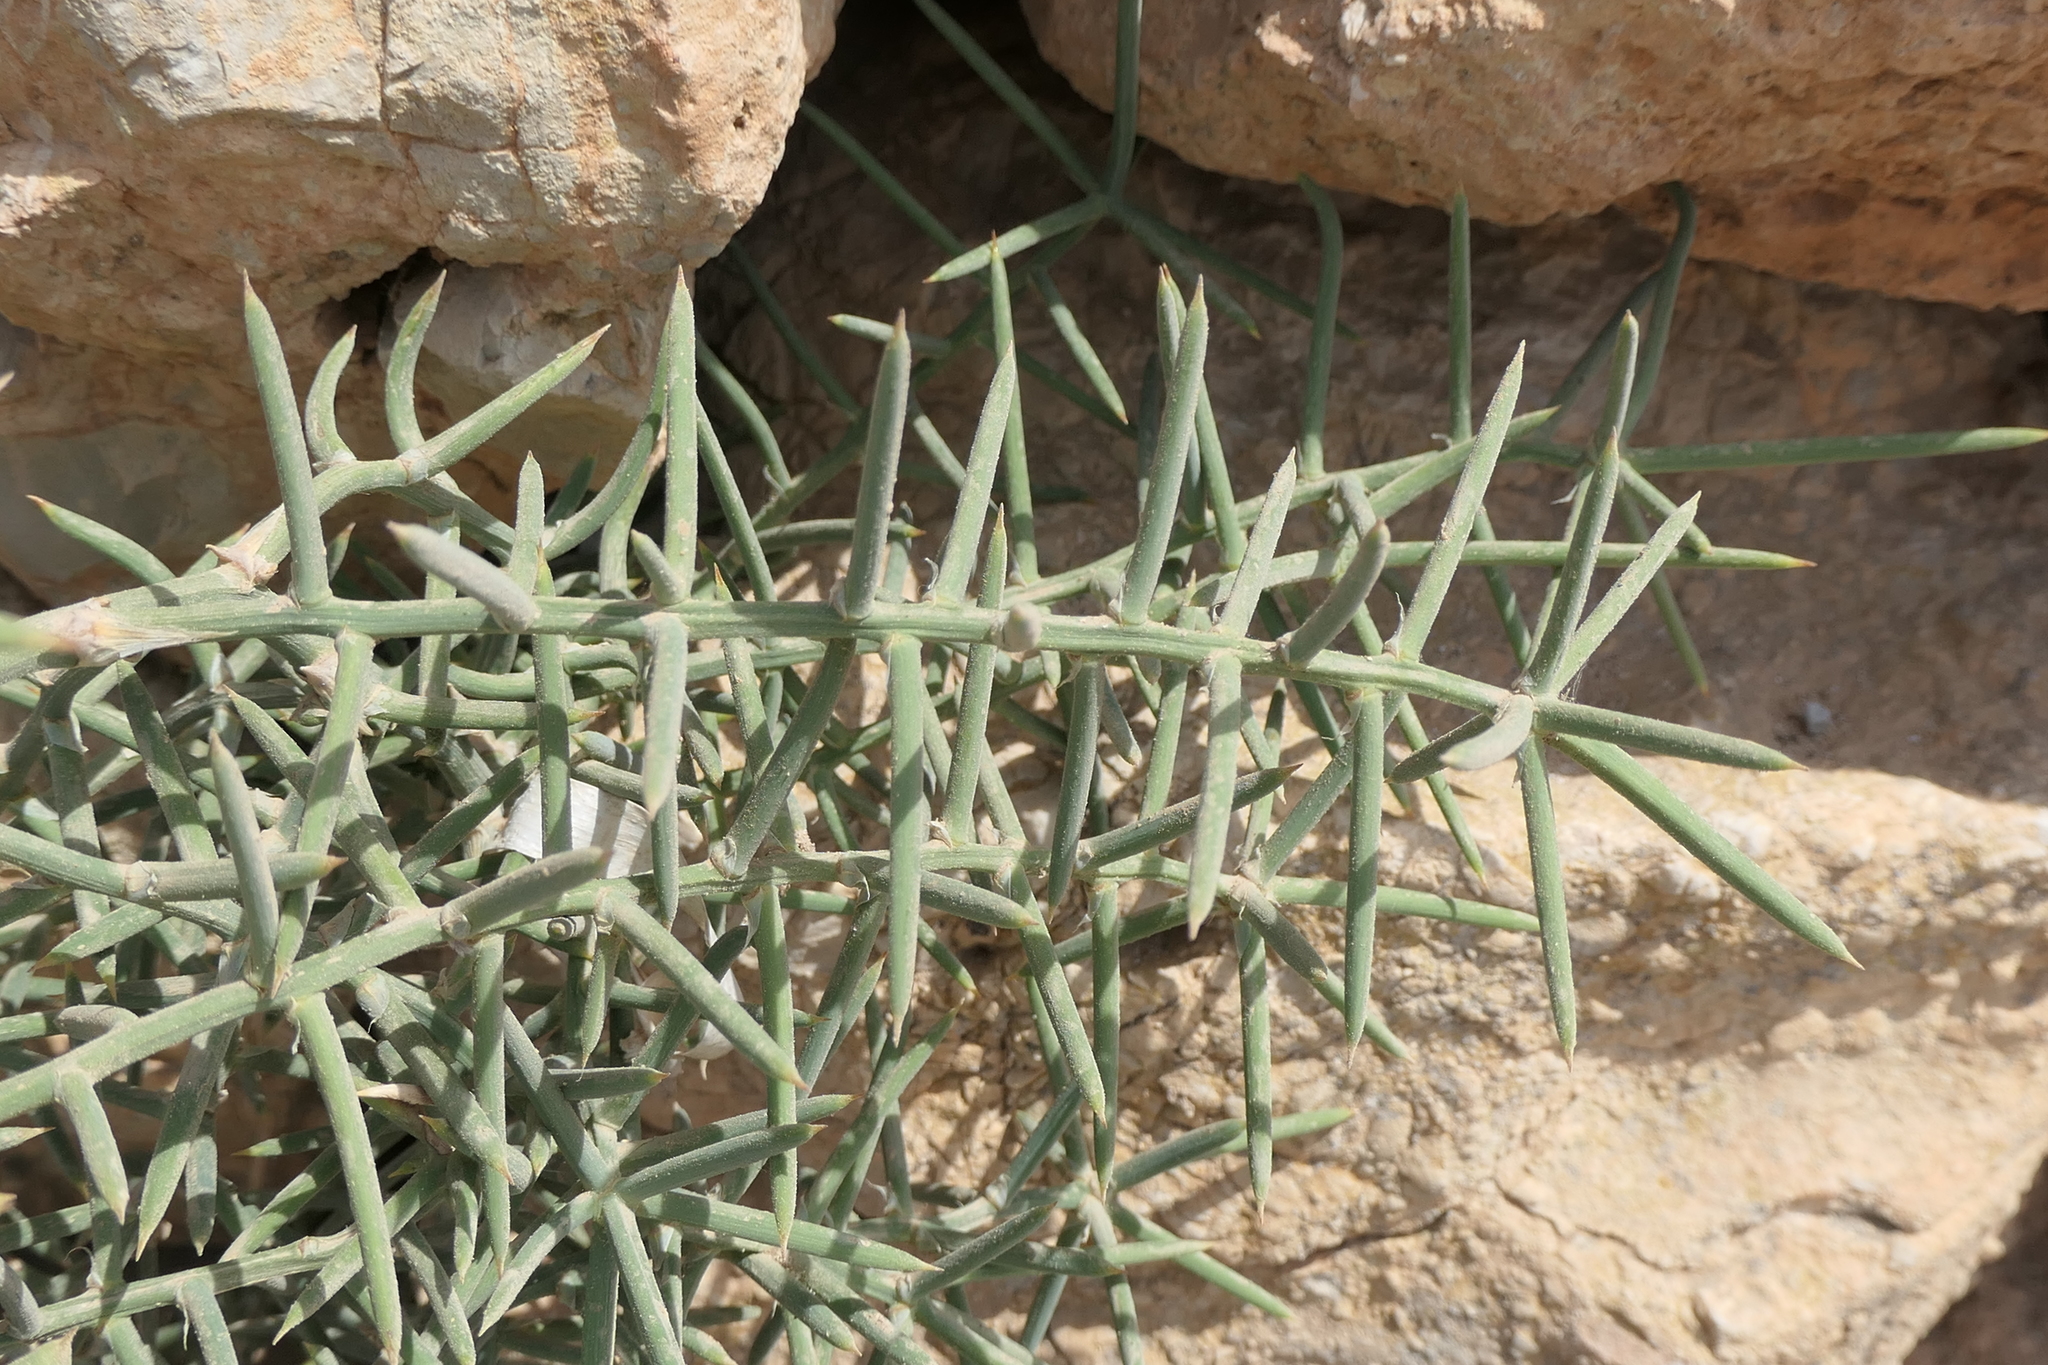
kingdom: Plantae
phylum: Tracheophyta
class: Liliopsida
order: Asparagales
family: Asparagaceae
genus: Asparagus
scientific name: Asparagus horridus
